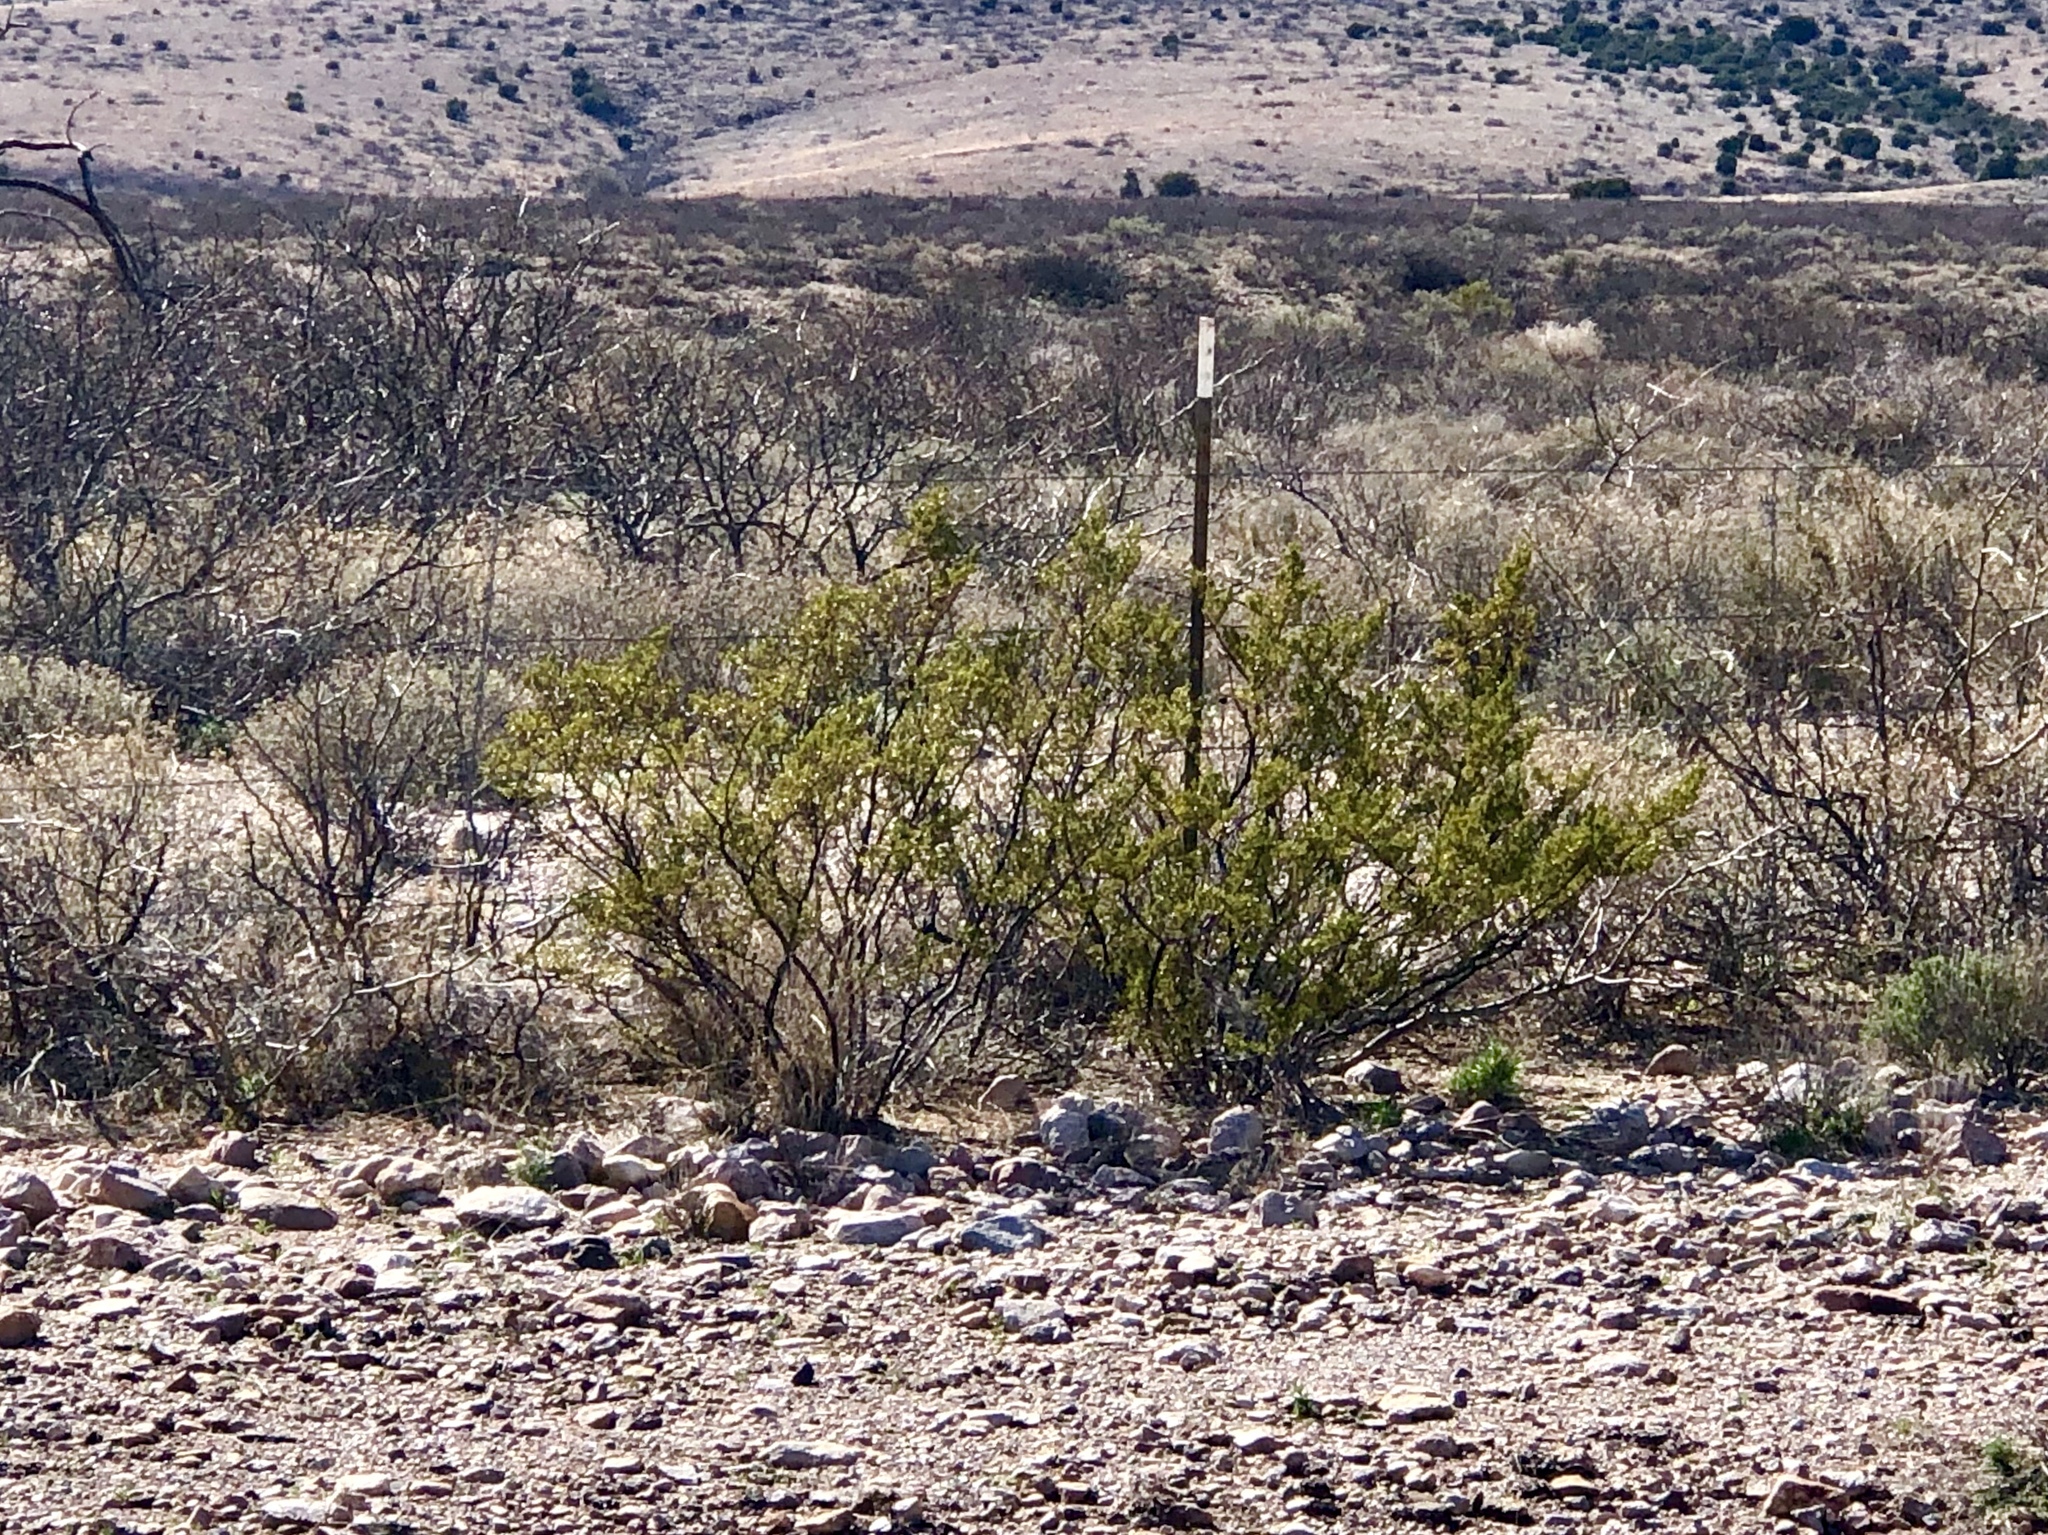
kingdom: Plantae
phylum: Tracheophyta
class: Magnoliopsida
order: Zygophyllales
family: Zygophyllaceae
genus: Larrea
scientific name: Larrea tridentata
